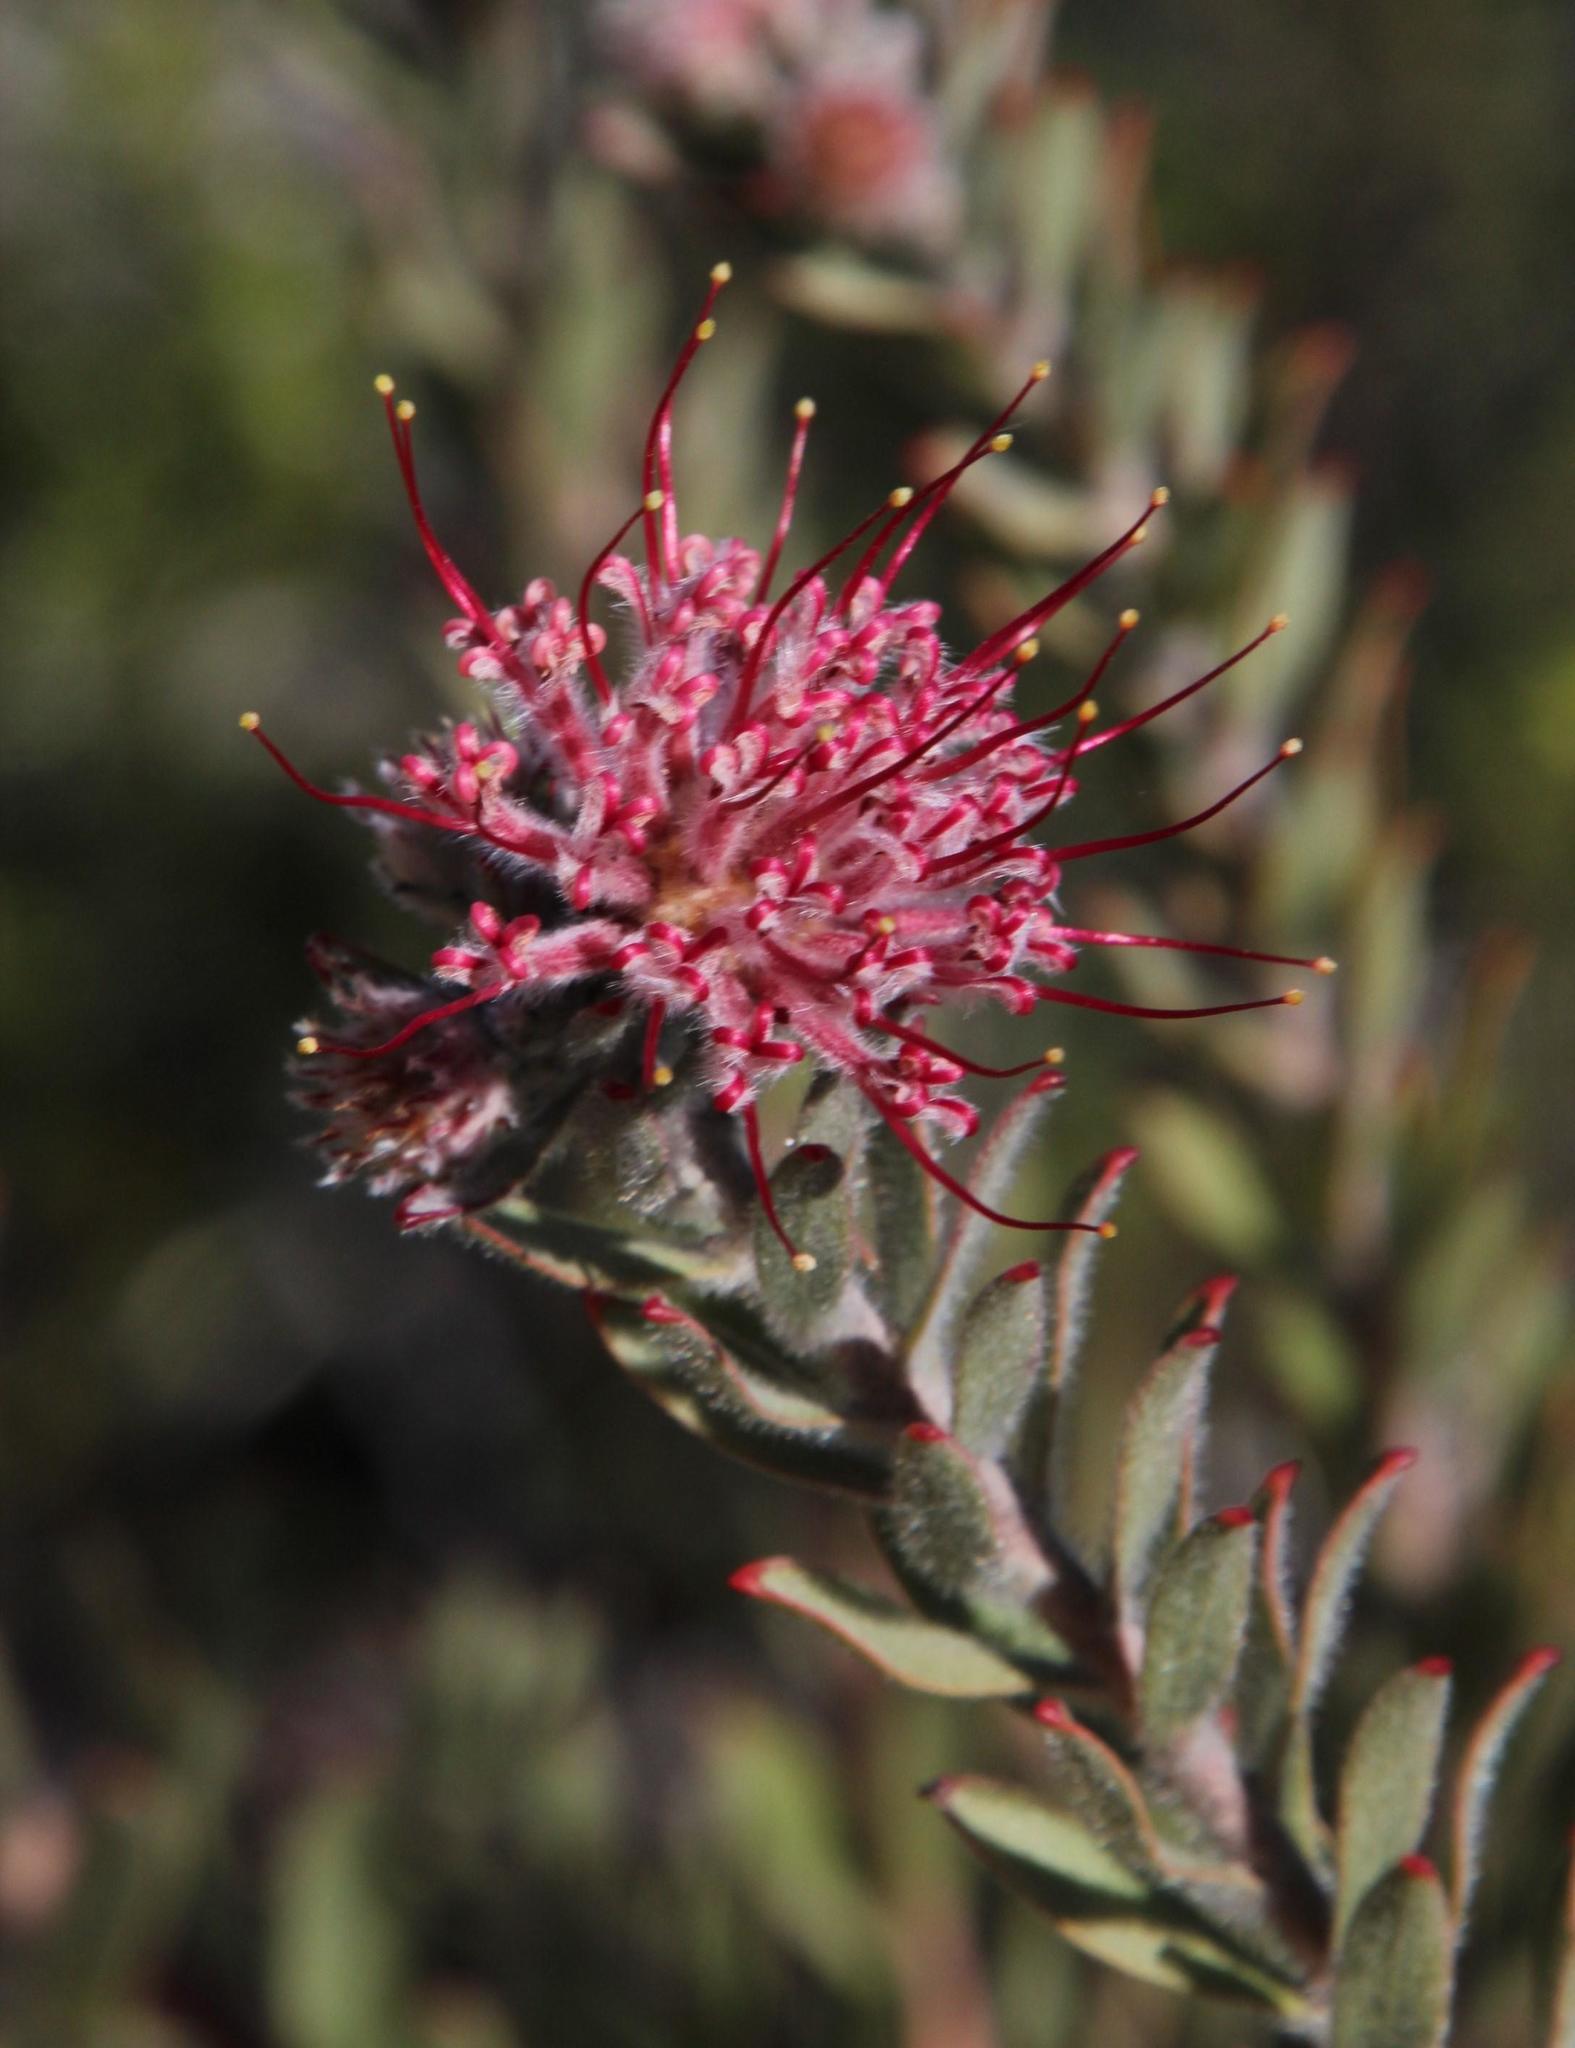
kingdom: Plantae
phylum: Tracheophyta
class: Magnoliopsida
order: Proteales
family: Proteaceae
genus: Leucospermum
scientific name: Leucospermum calligerum
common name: Arid pincushion
